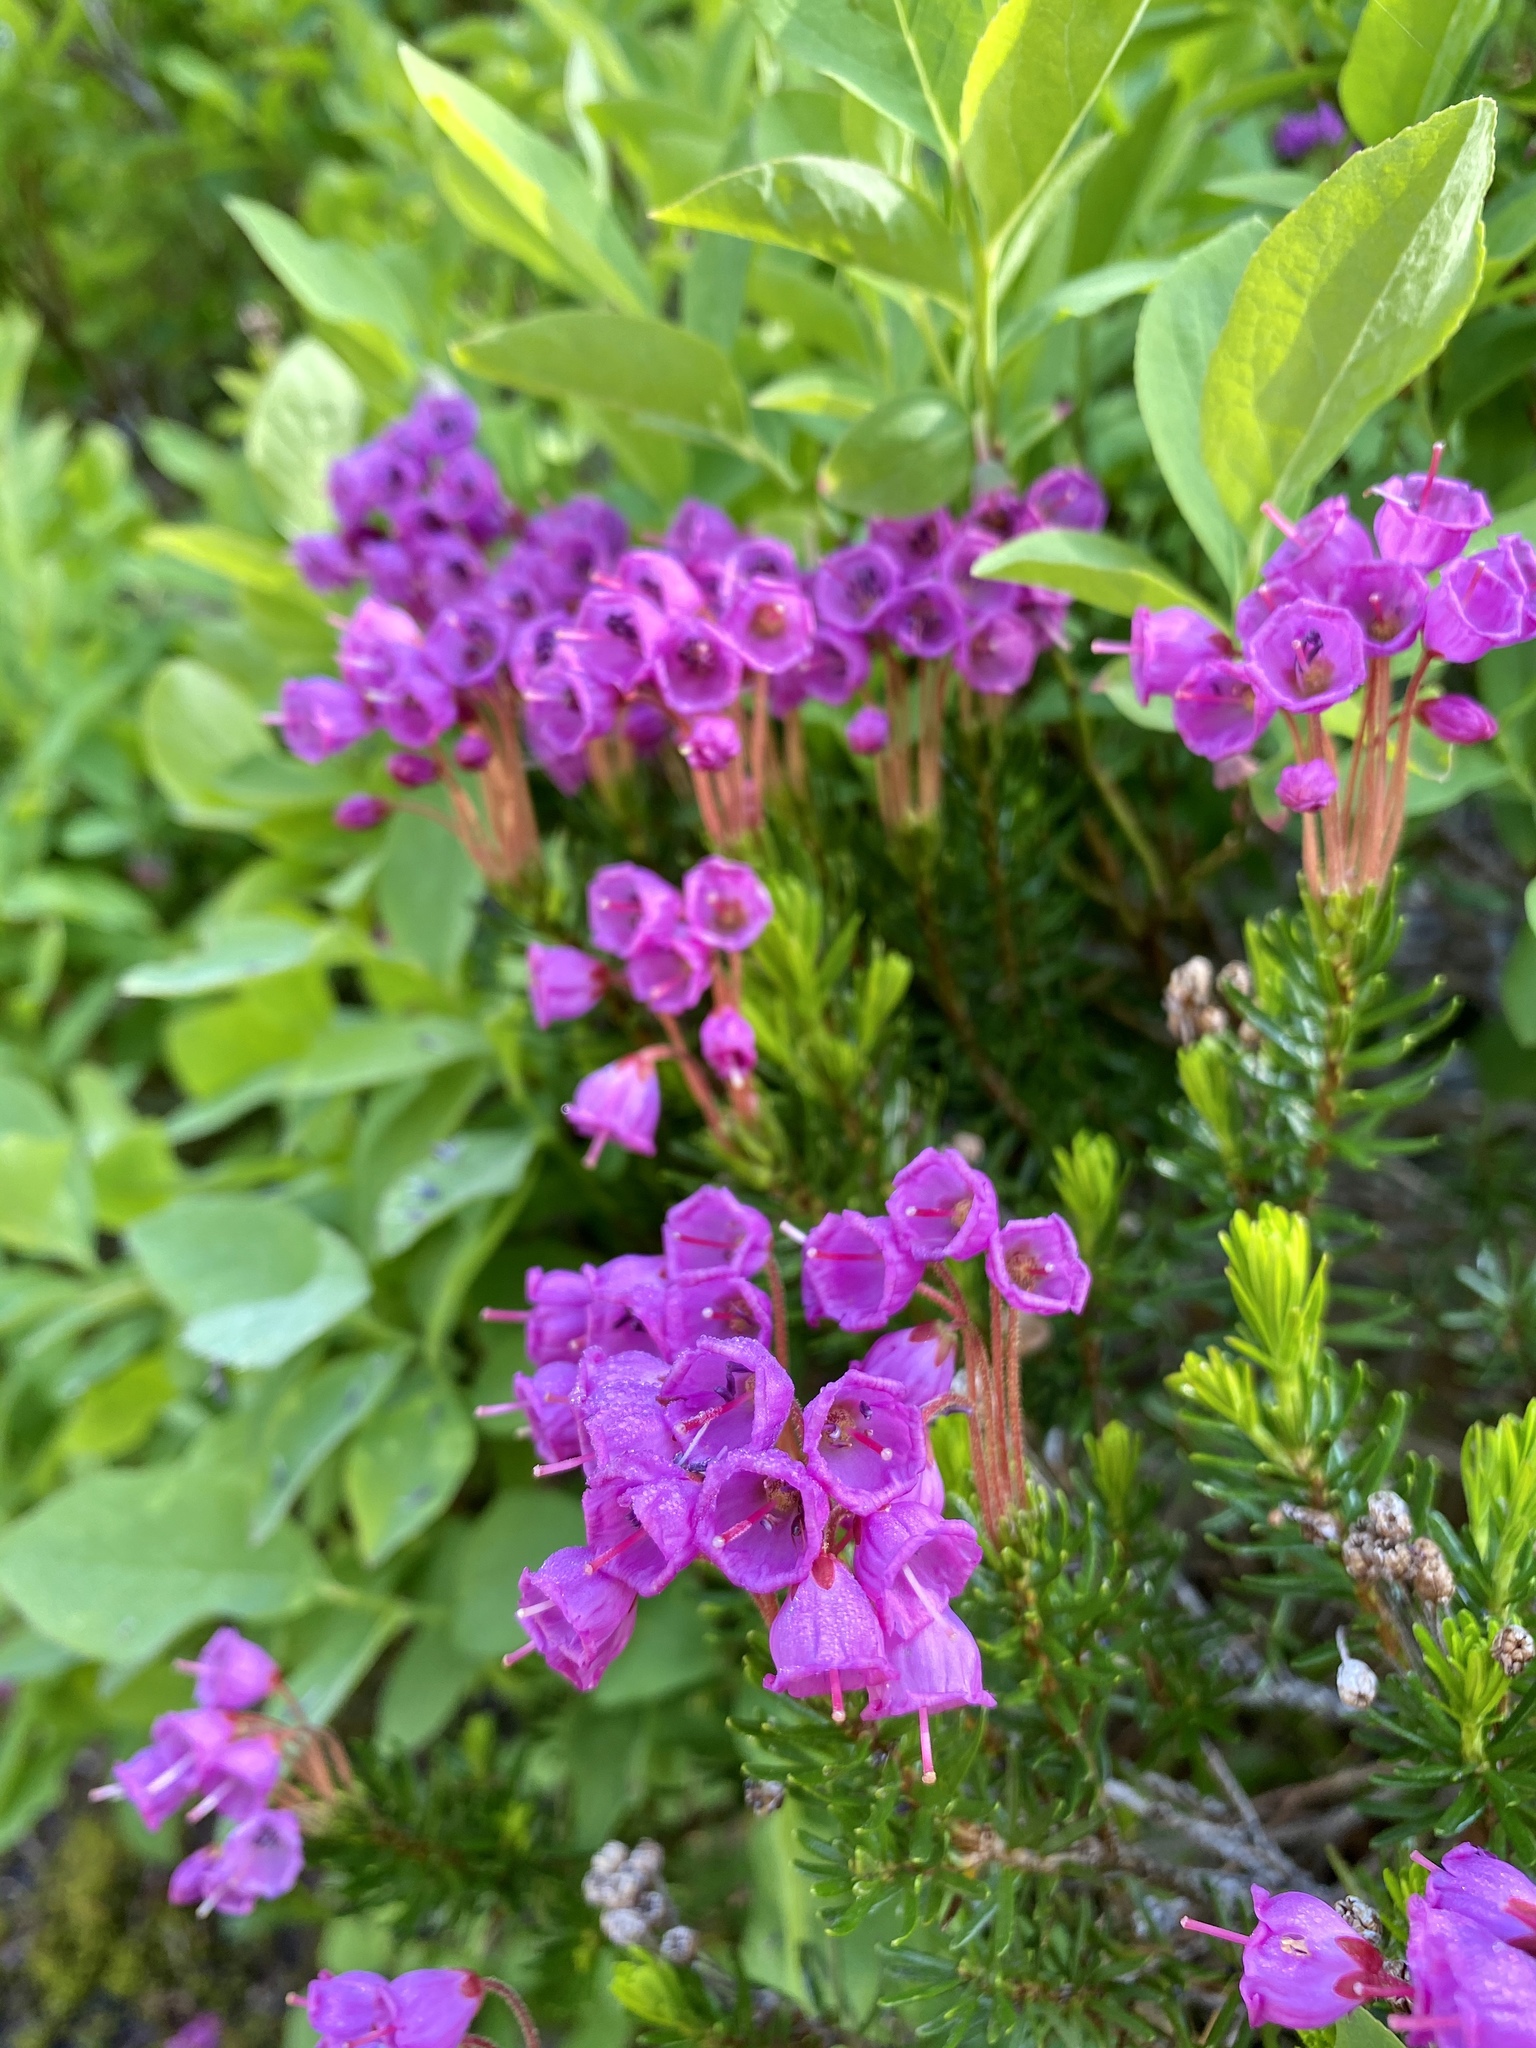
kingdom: Plantae
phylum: Tracheophyta
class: Magnoliopsida
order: Ericales
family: Ericaceae
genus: Phyllodoce
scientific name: Phyllodoce empetriformis
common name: Pink mountain heather
